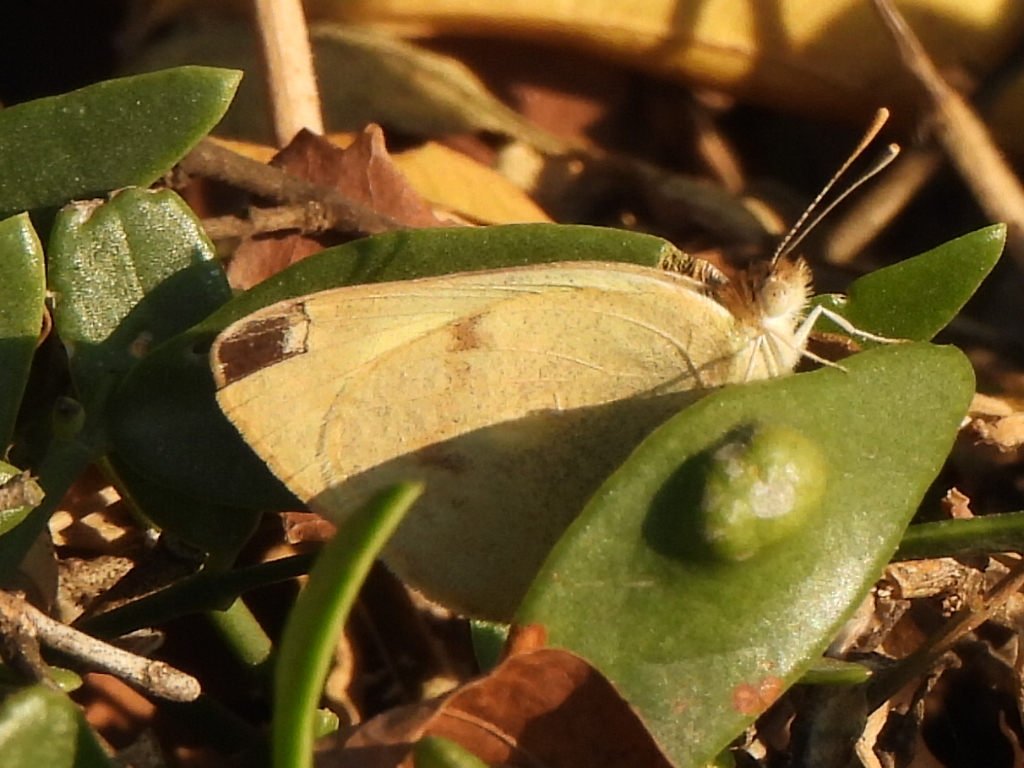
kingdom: Animalia
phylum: Arthropoda
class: Insecta
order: Lepidoptera
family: Pieridae
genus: Colotis
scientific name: Colotis phisadia
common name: Blue spotted arab
